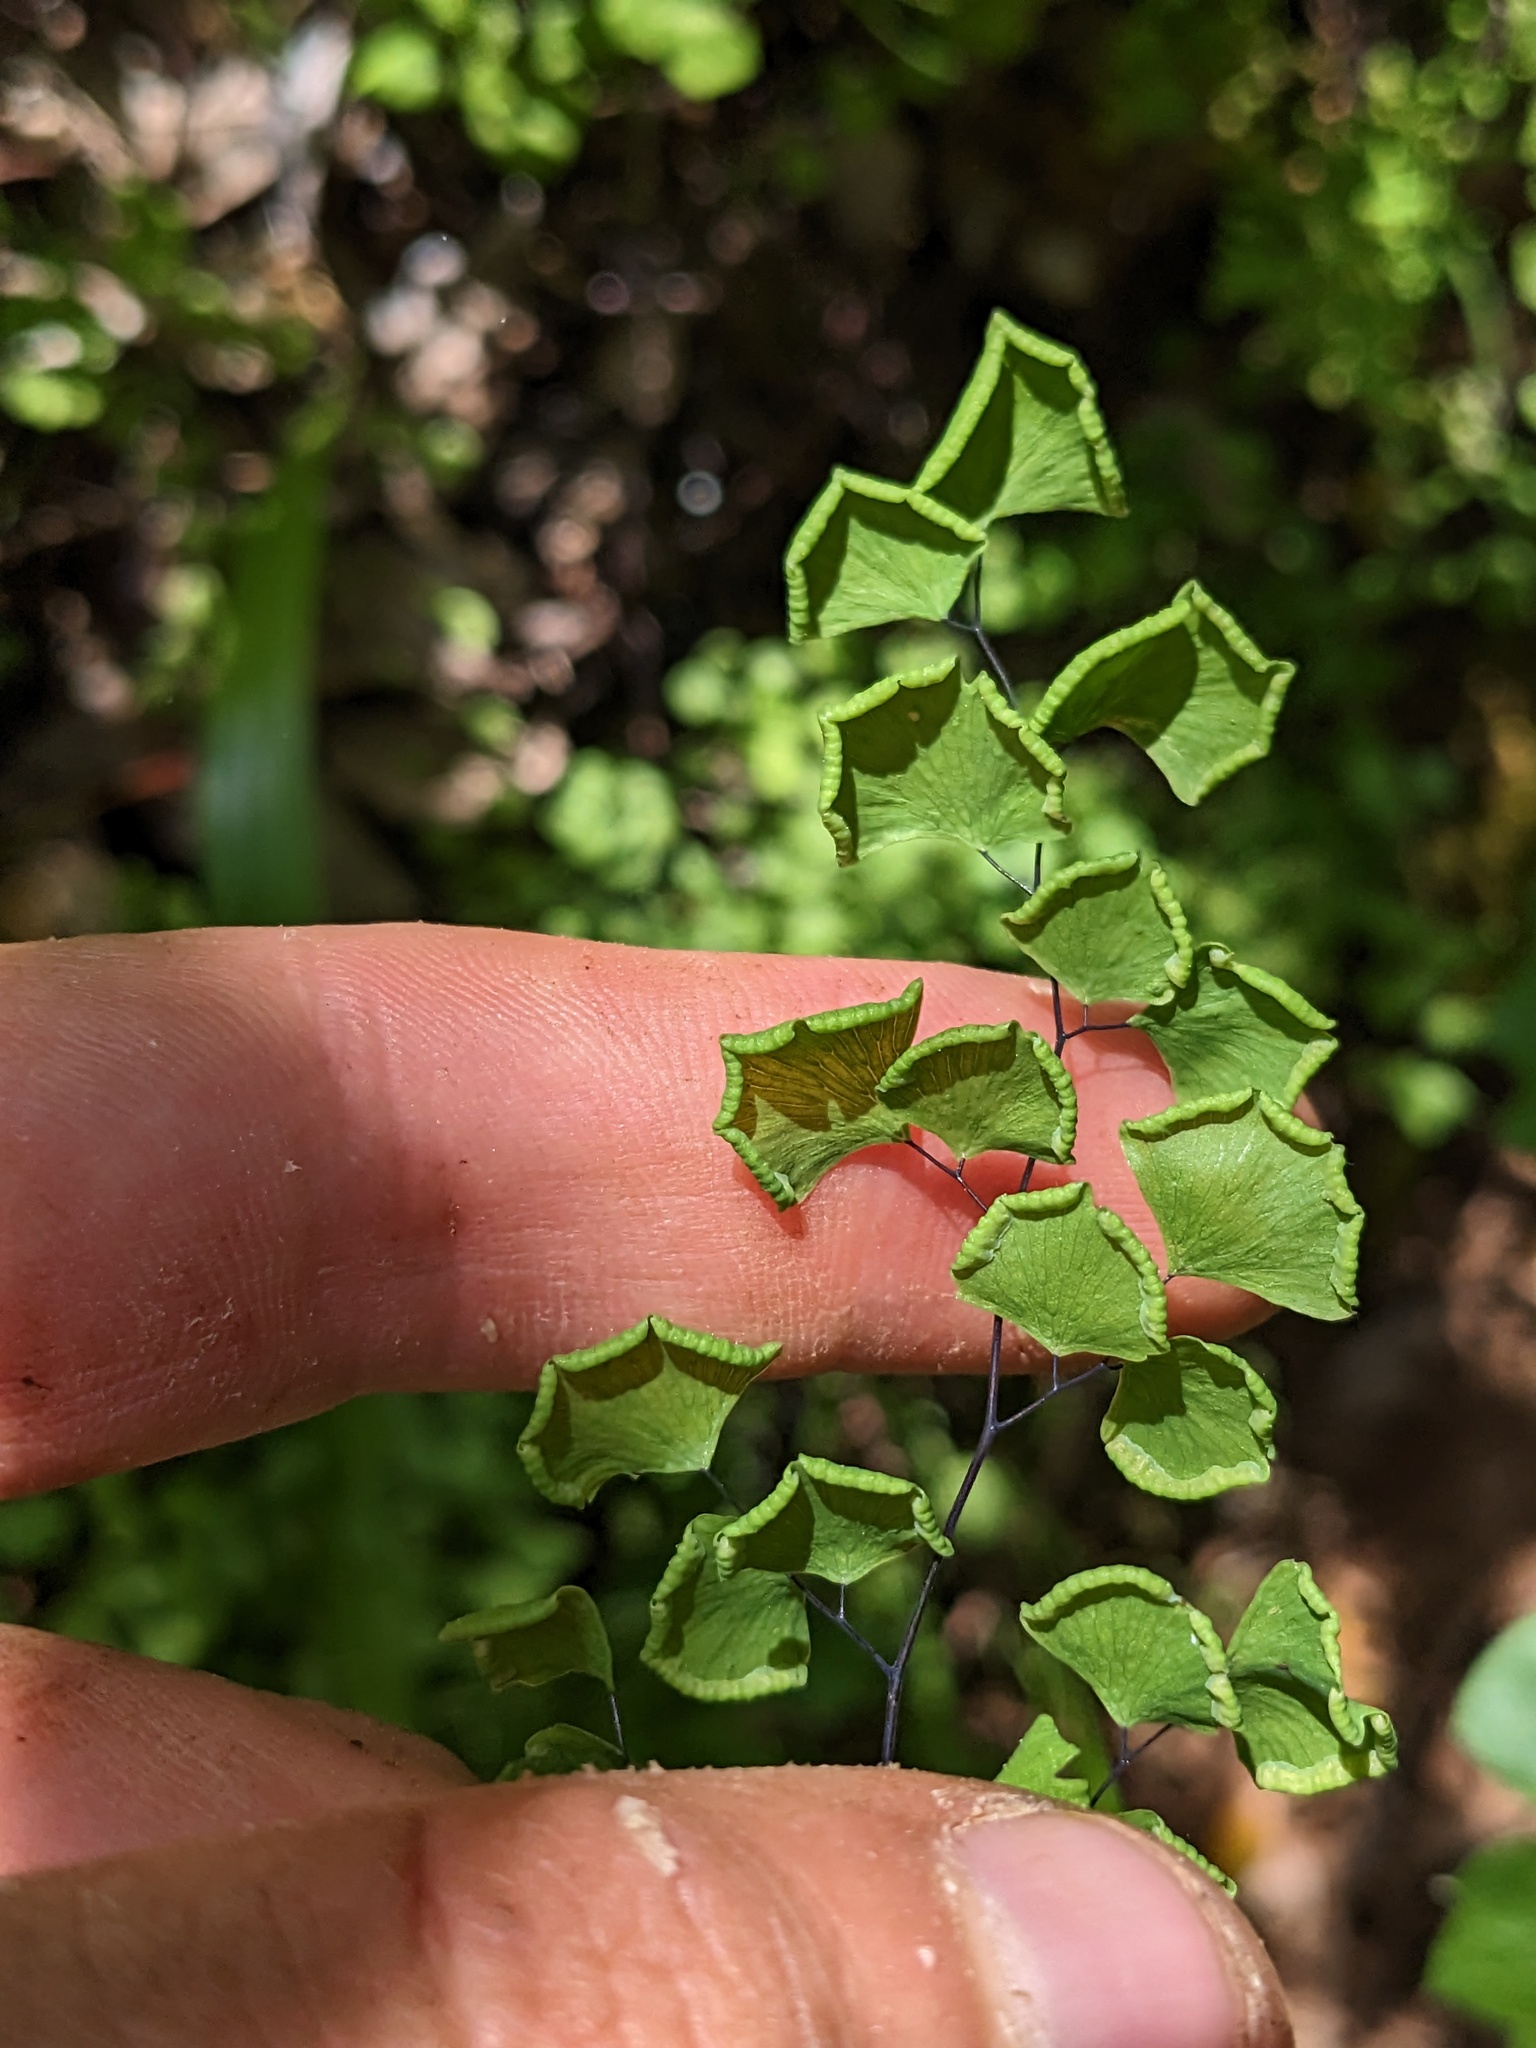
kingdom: Plantae
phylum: Tracheophyta
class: Polypodiopsida
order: Polypodiales
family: Pteridaceae
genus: Adiantum
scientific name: Adiantum jordanii
